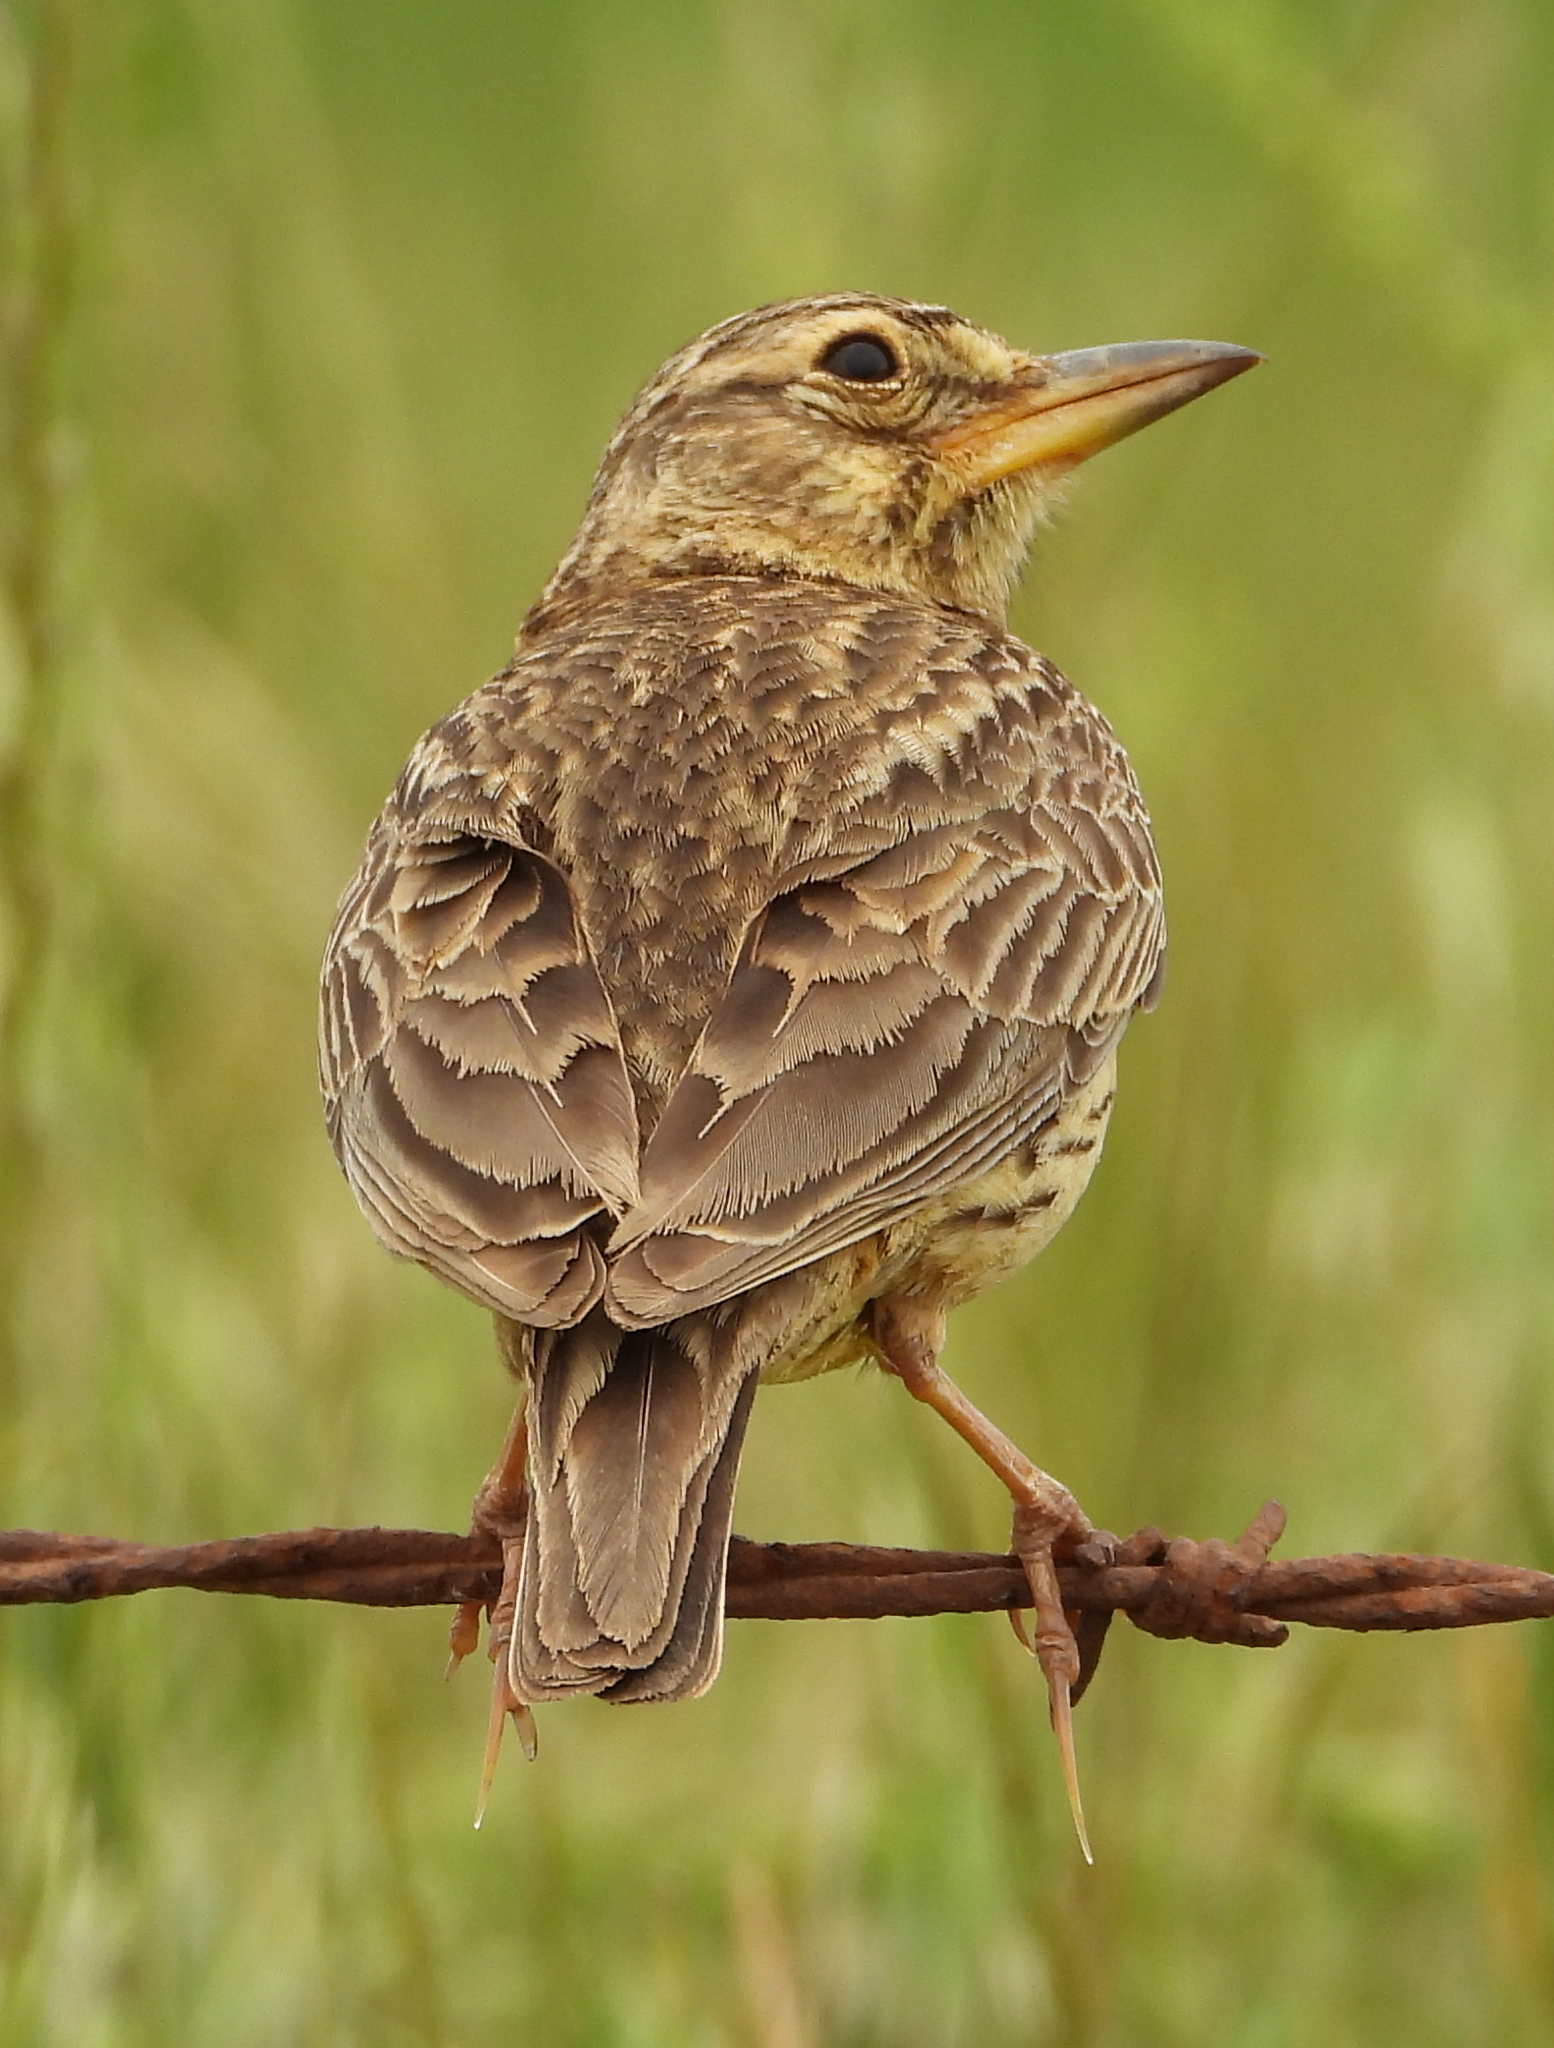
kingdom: Animalia
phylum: Chordata
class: Aves
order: Passeriformes
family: Alaudidae
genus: Galerida
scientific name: Galerida magnirostris
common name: Large-billed lark
